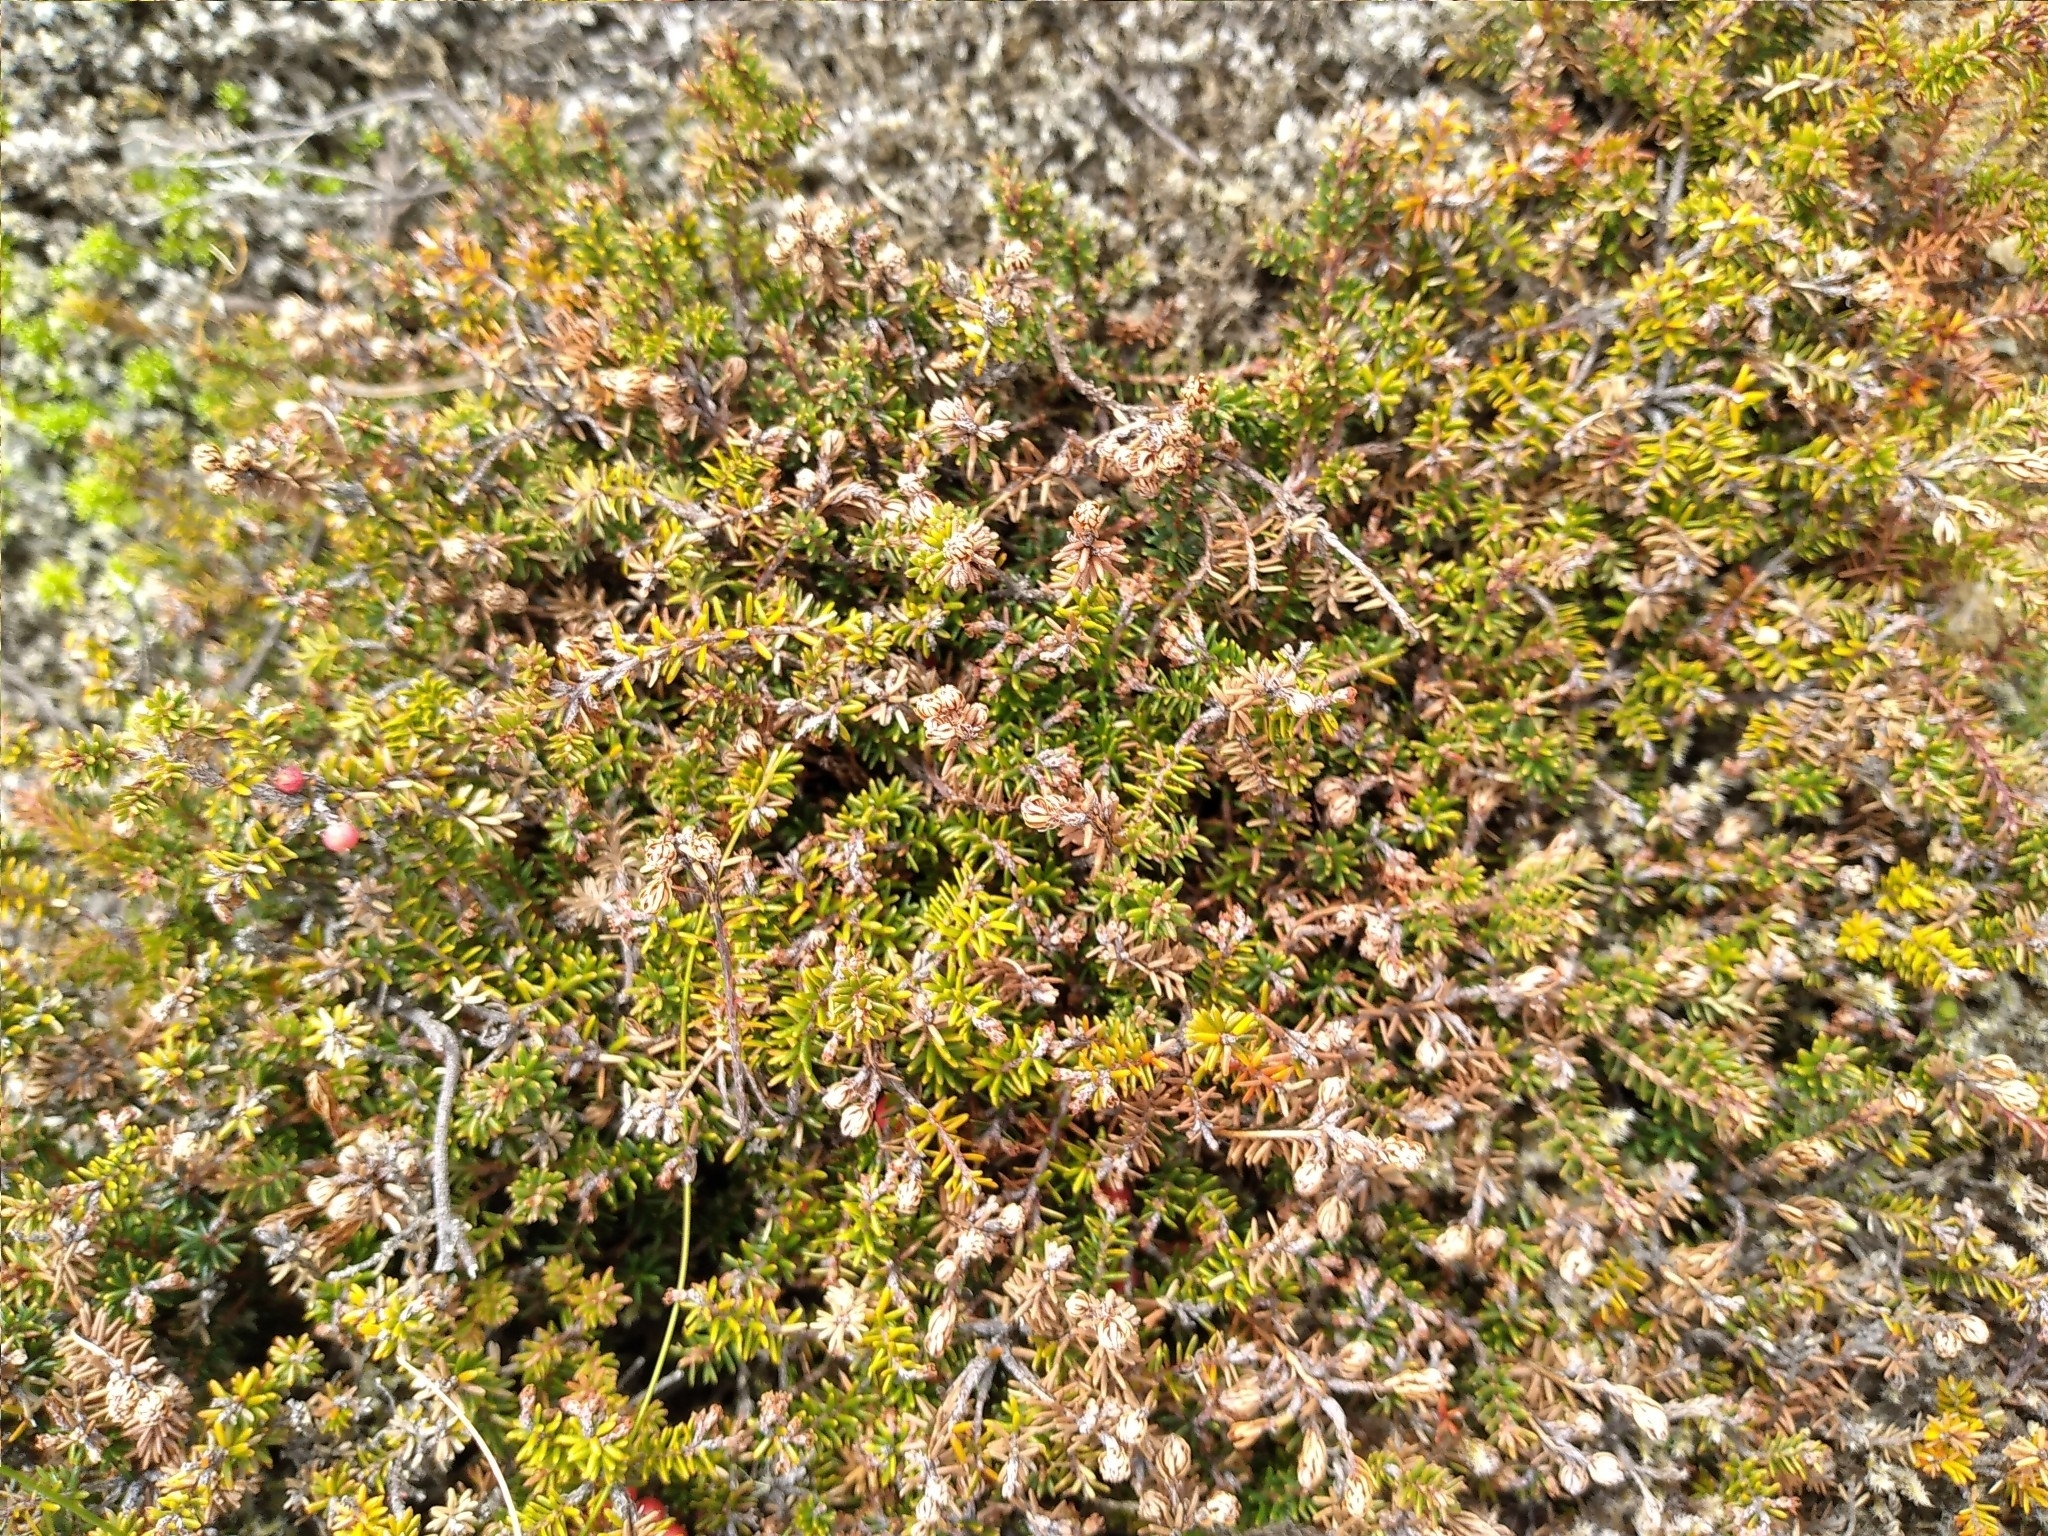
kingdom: Plantae
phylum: Tracheophyta
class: Magnoliopsida
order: Ericales
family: Ericaceae
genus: Androstoma
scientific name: Androstoma empetrifolia
